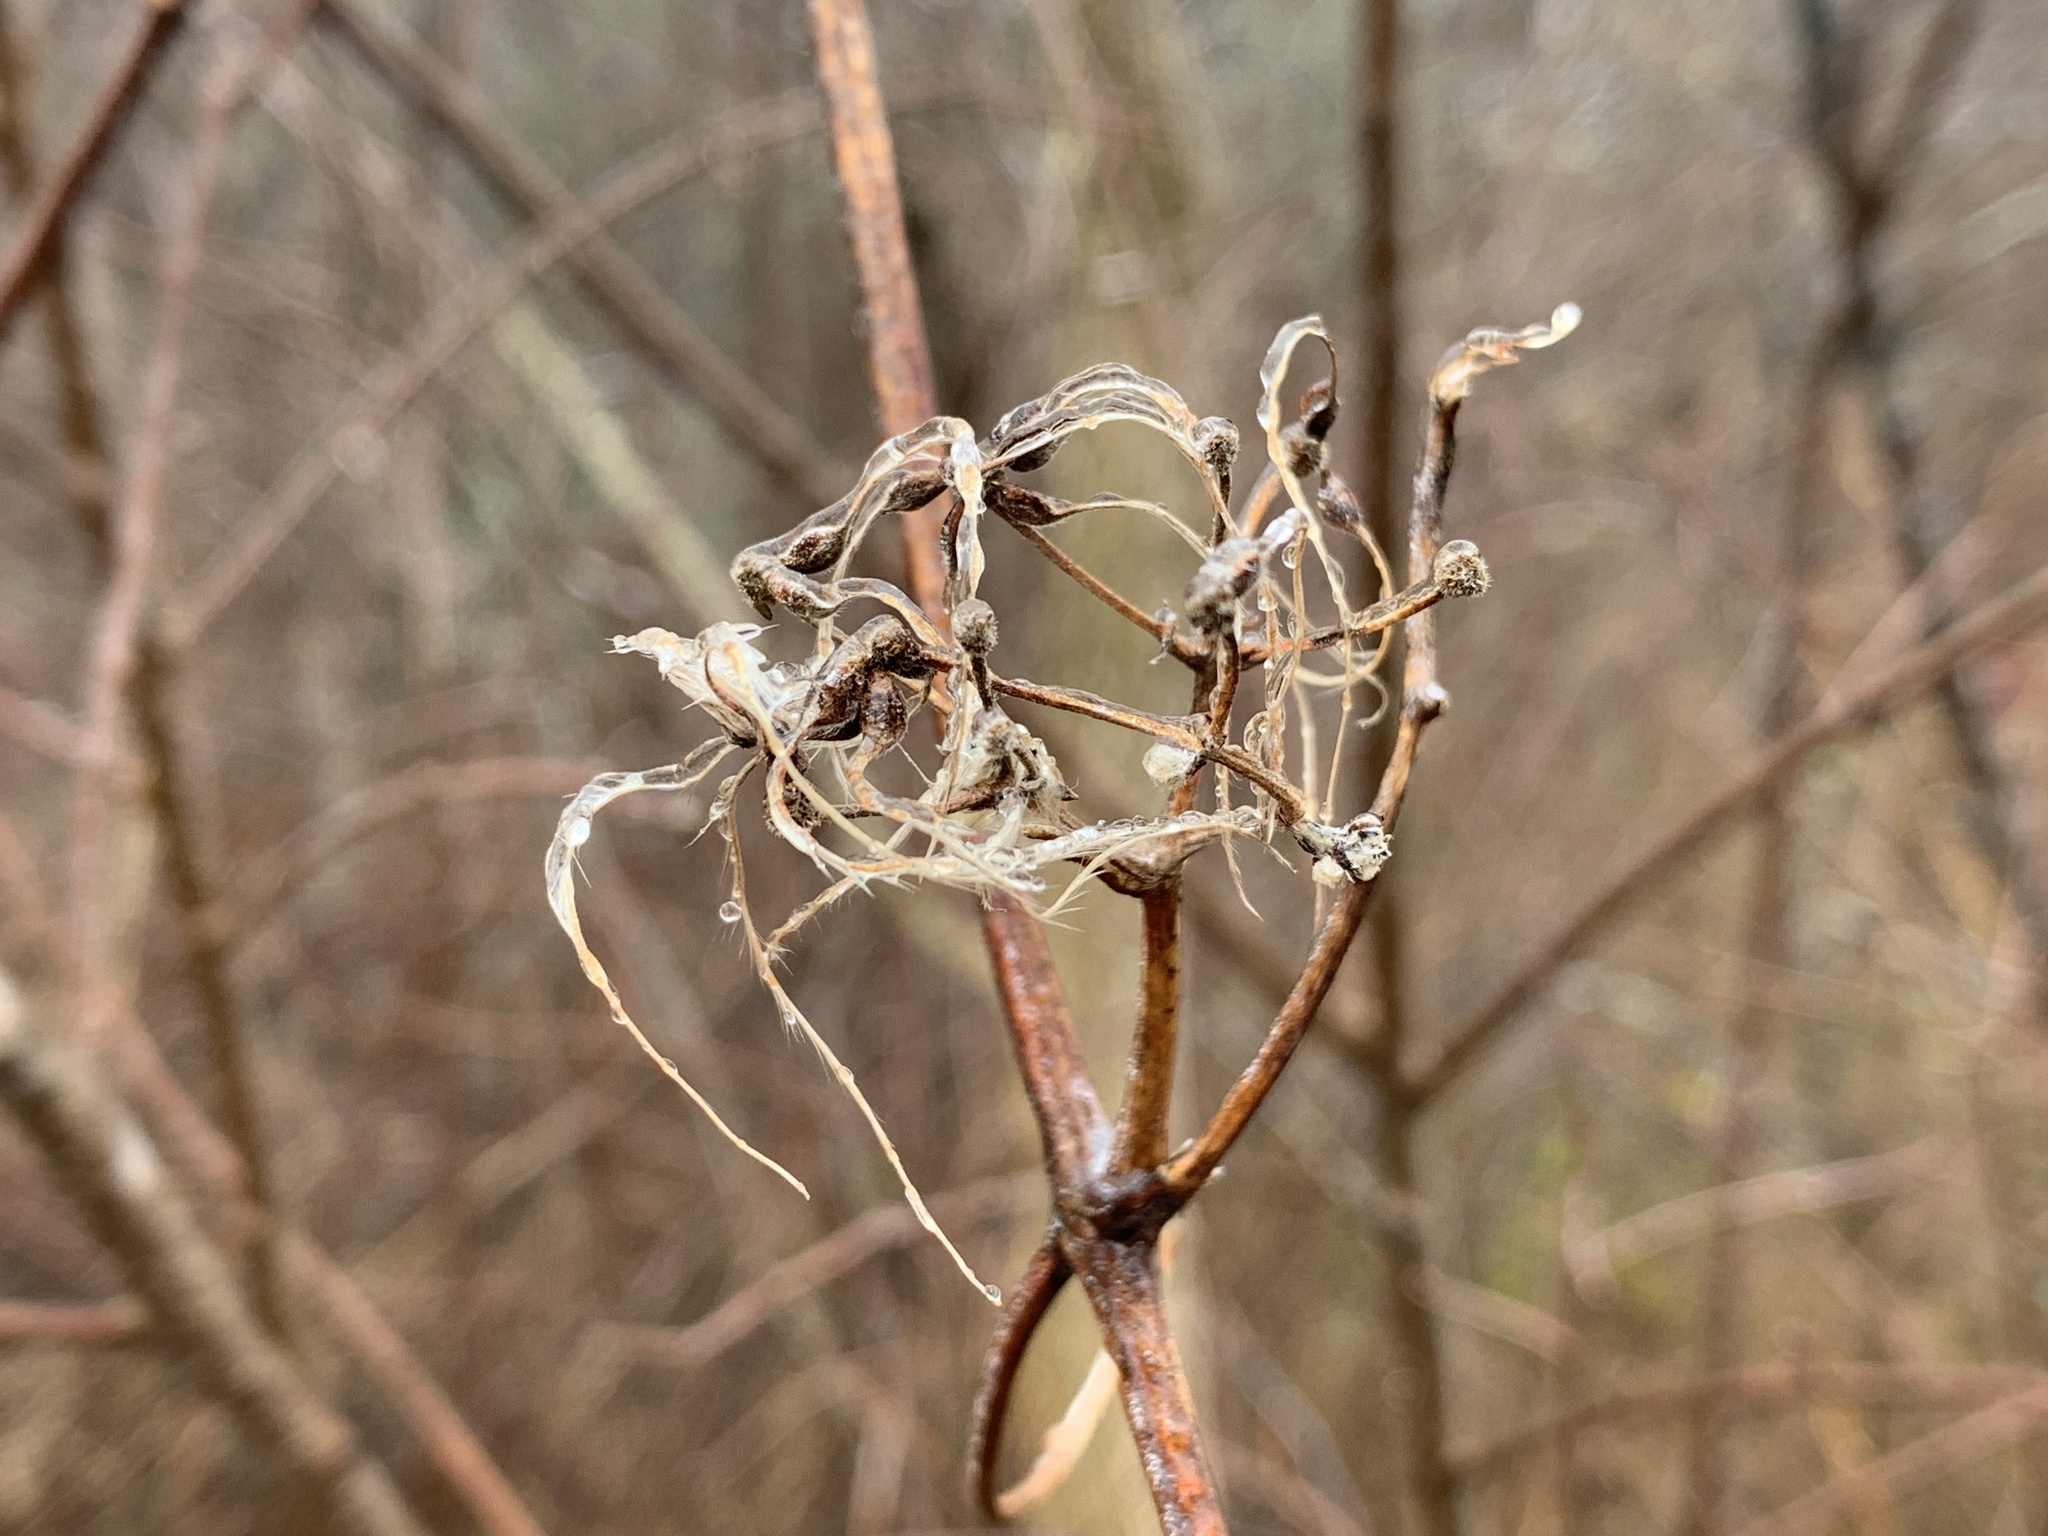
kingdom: Plantae
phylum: Tracheophyta
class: Magnoliopsida
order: Ranunculales
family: Ranunculaceae
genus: Clematis
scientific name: Clematis virginiana
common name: Virgin's-bower
